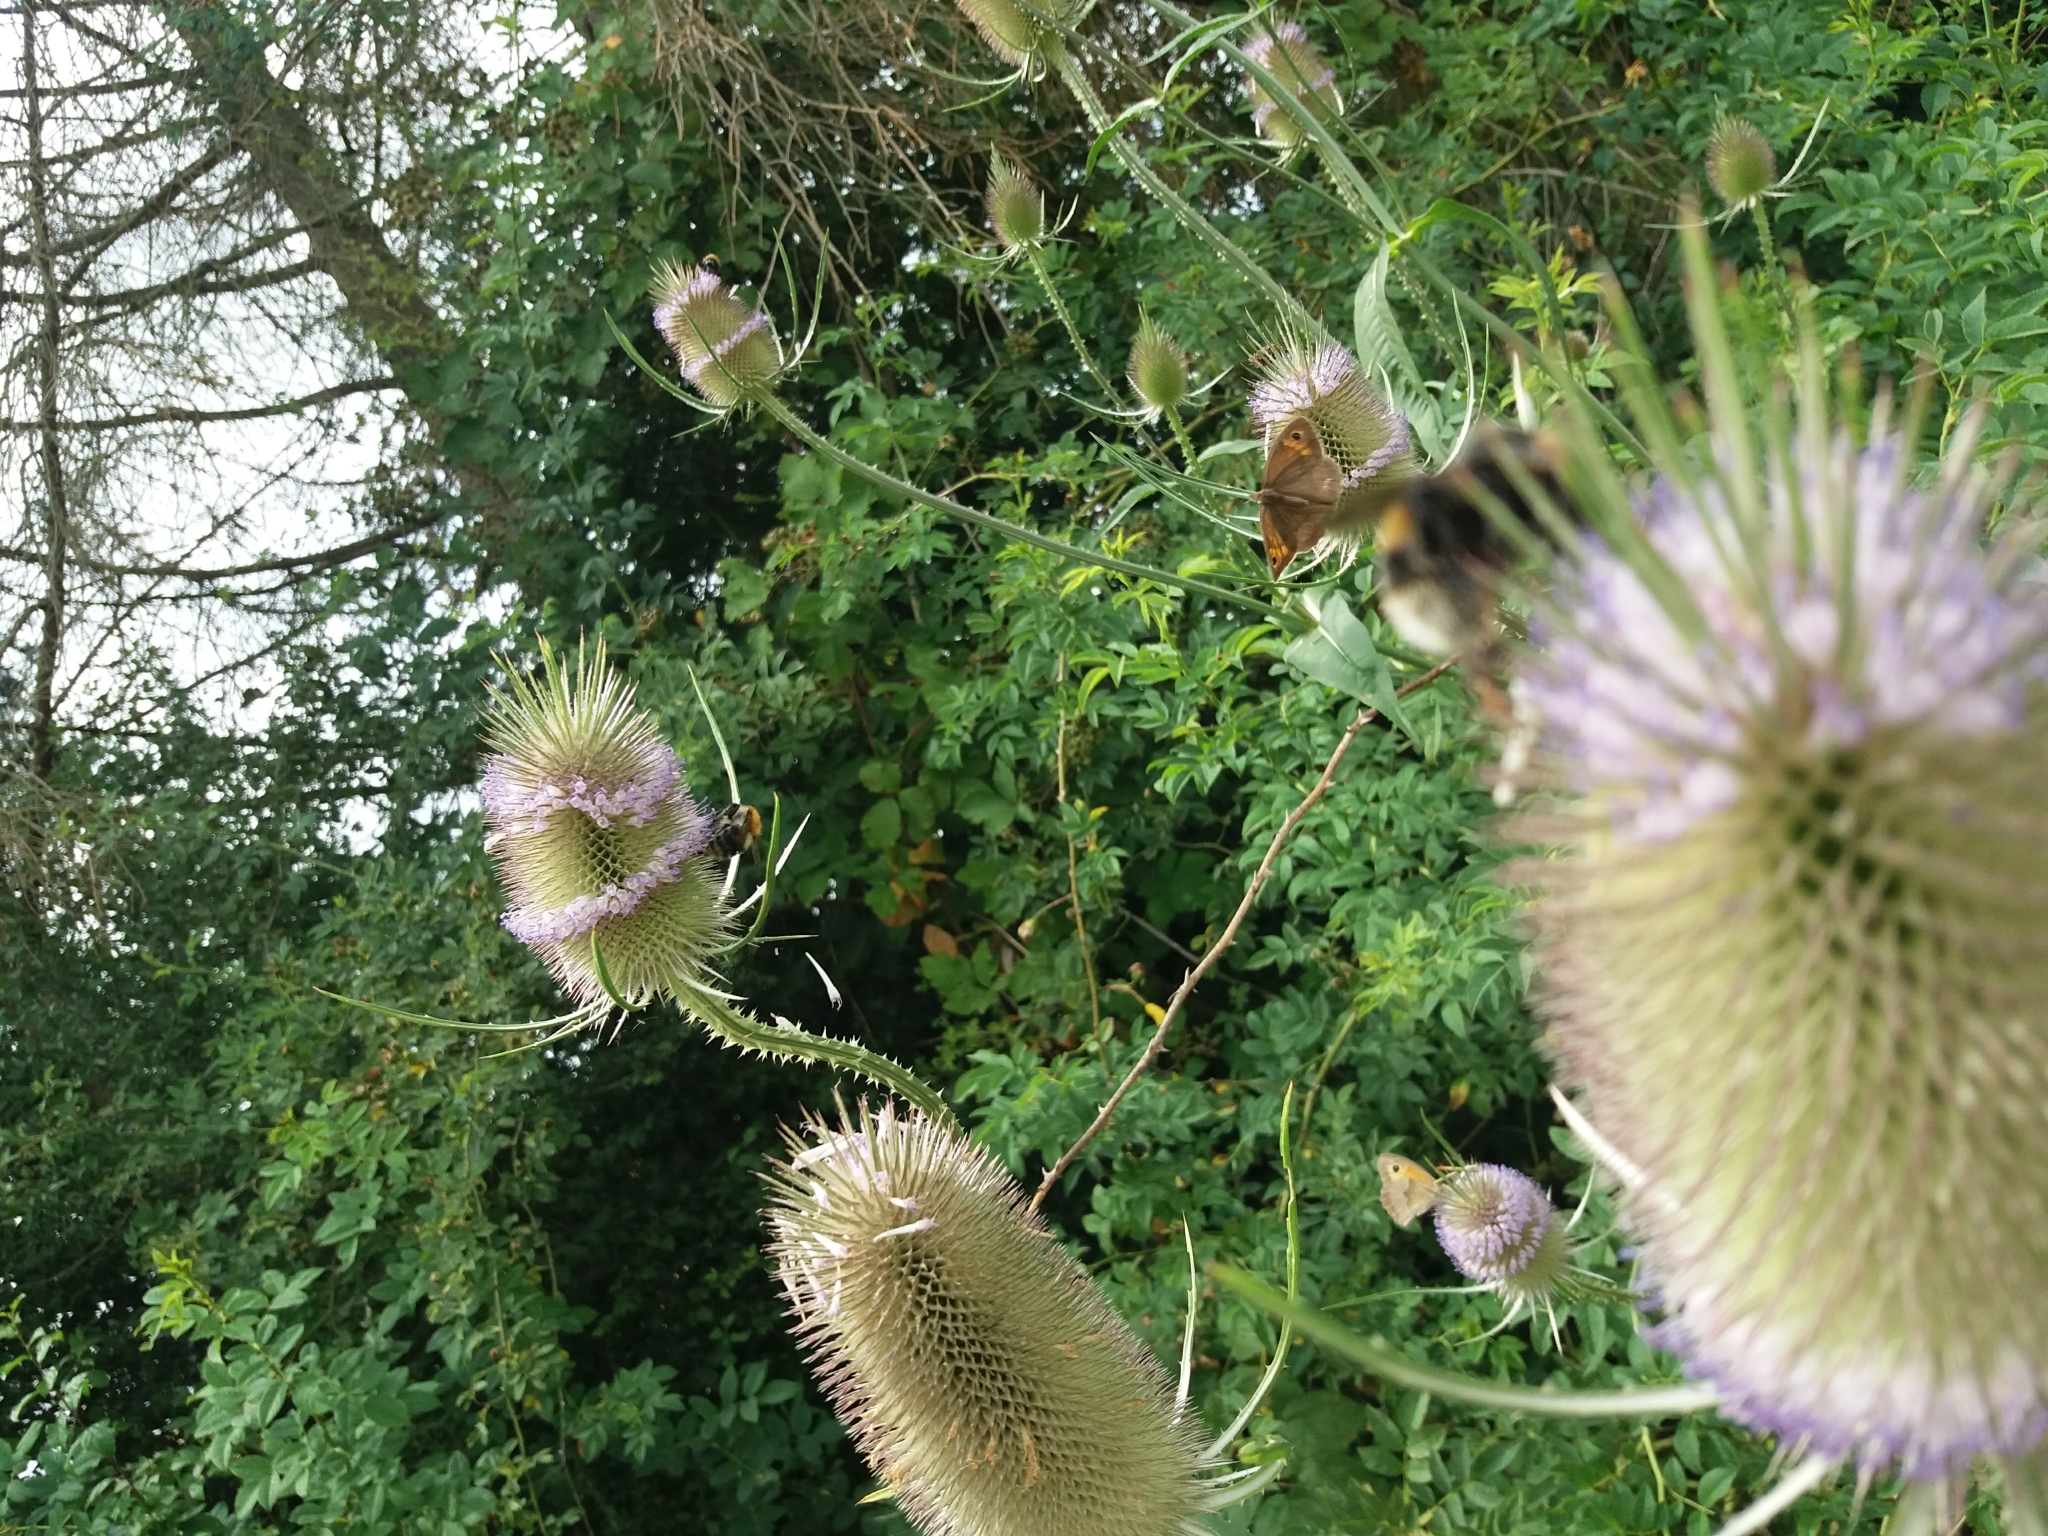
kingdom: Plantae
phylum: Tracheophyta
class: Magnoliopsida
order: Dipsacales
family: Caprifoliaceae
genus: Dipsacus
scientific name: Dipsacus fullonum
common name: Teasel
